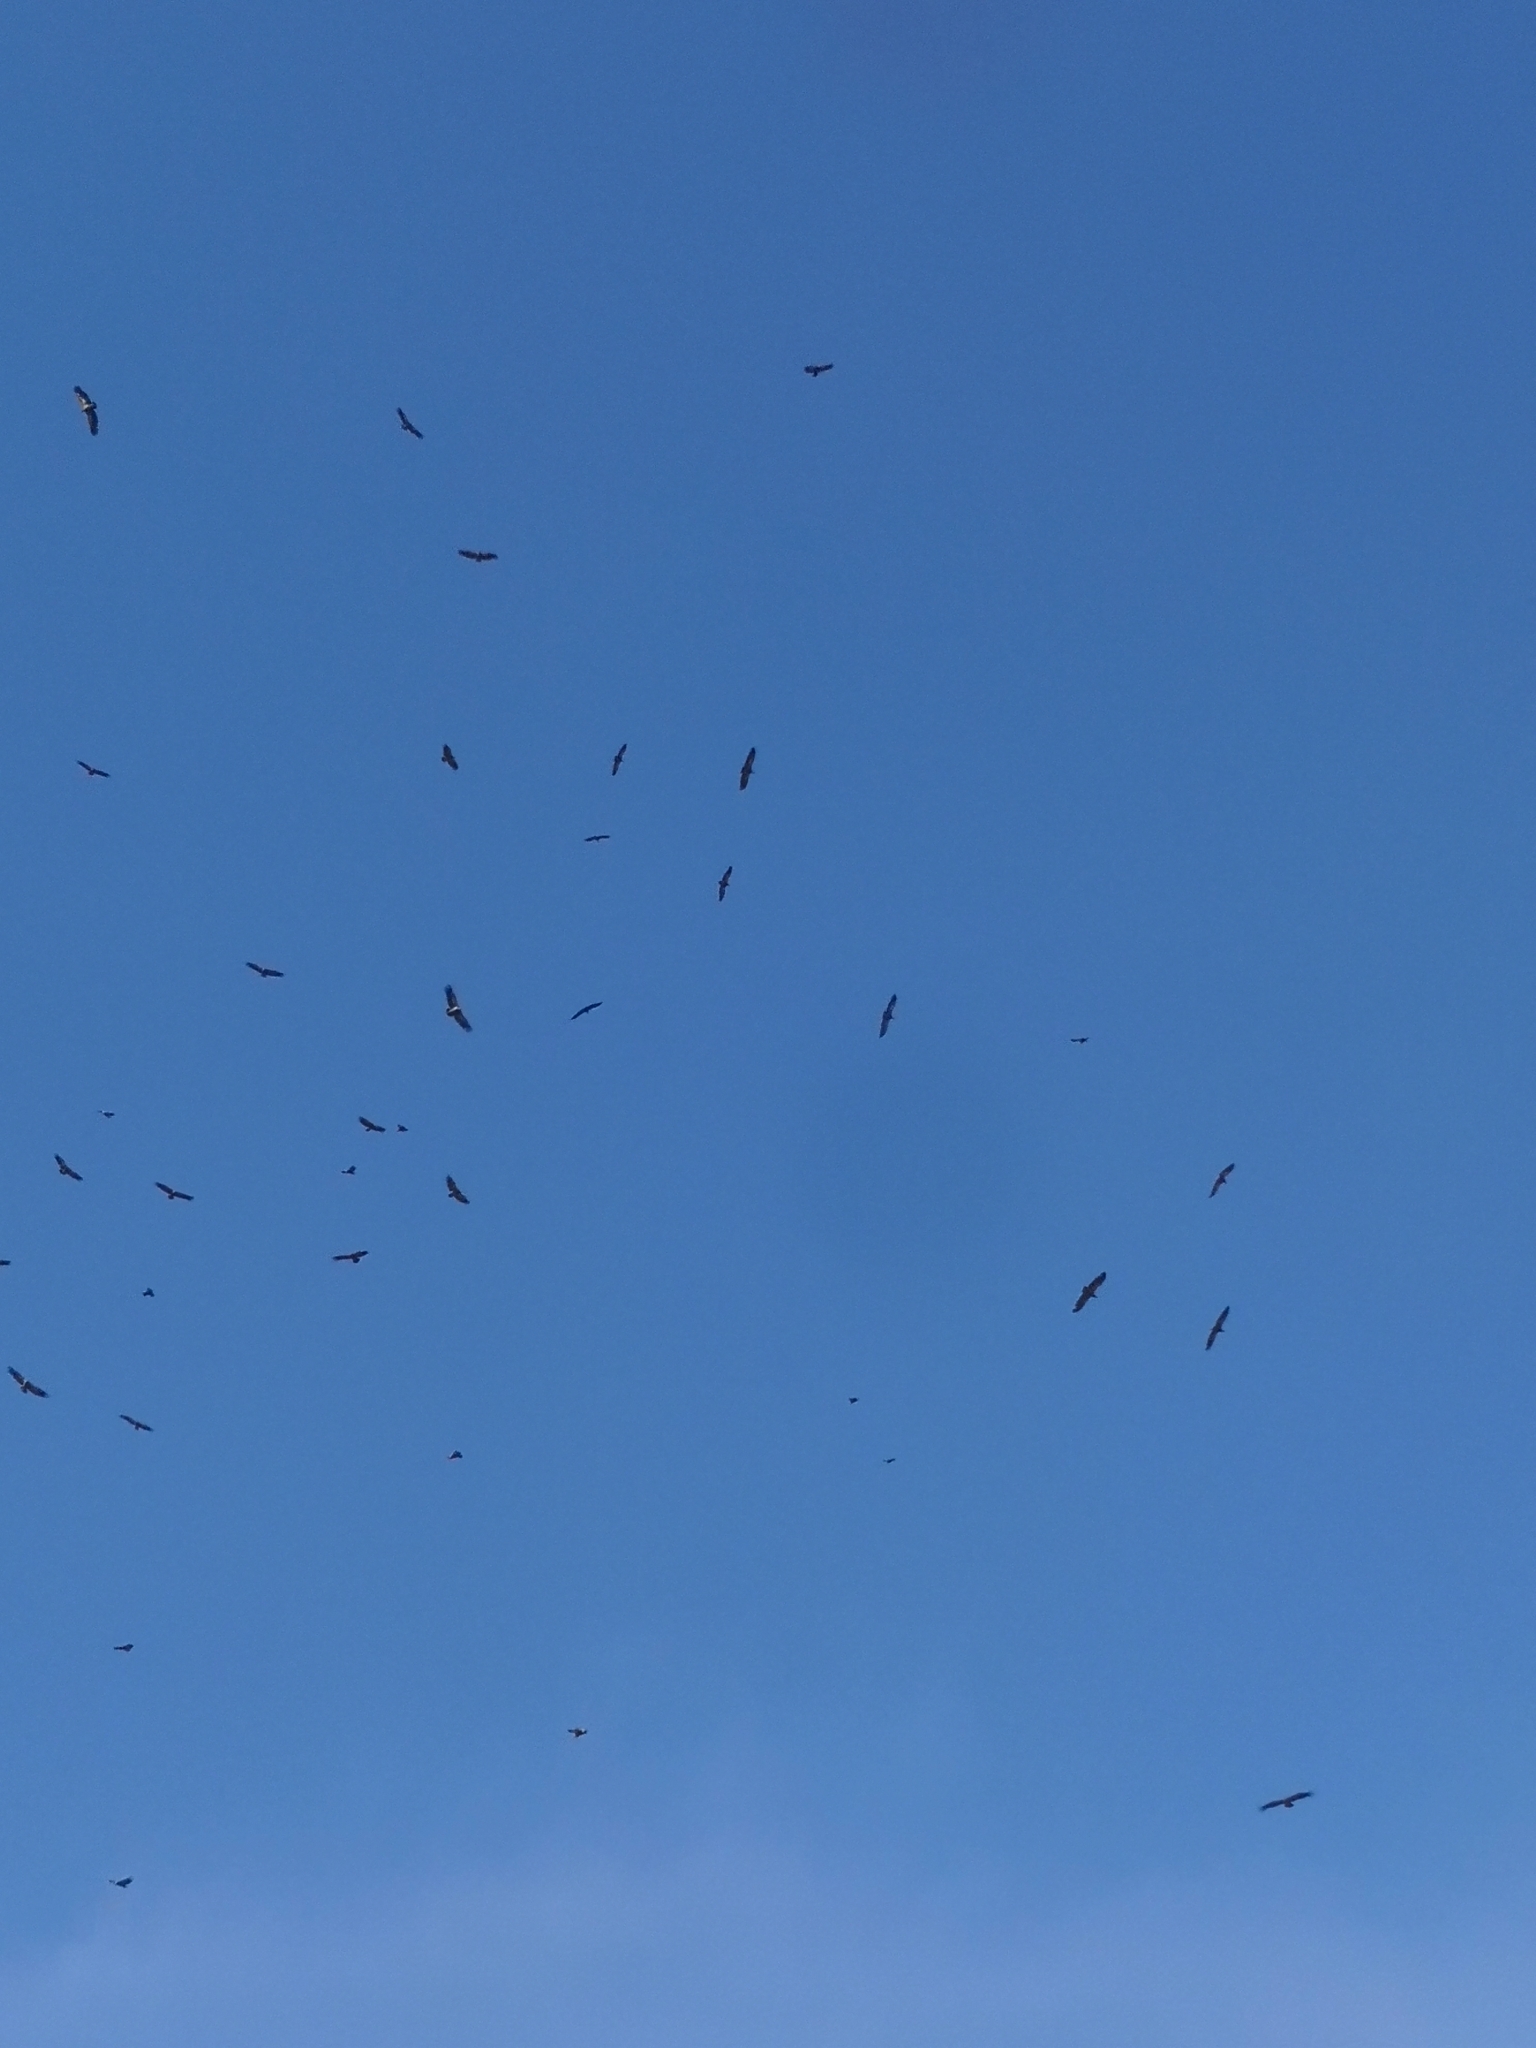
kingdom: Animalia
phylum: Chordata
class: Aves
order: Accipitriformes
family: Accipitridae
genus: Gyps
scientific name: Gyps fulvus
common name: Griffon vulture
